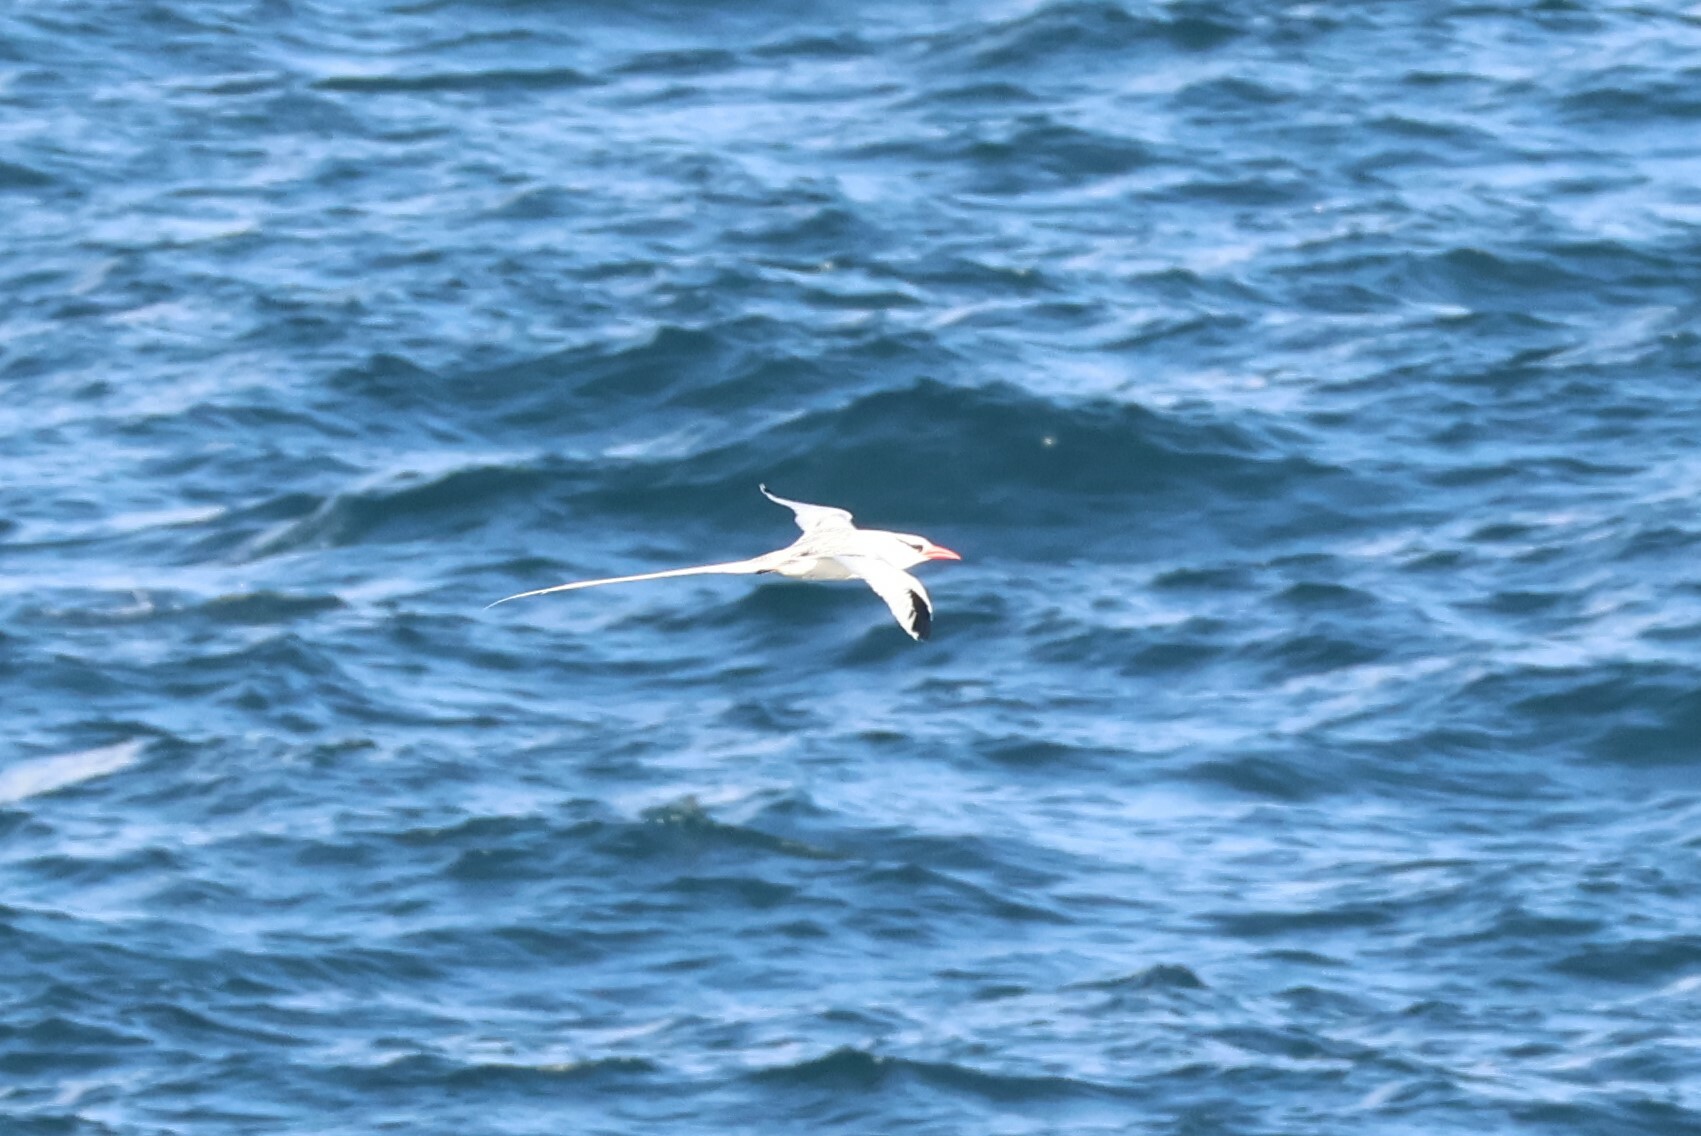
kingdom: Animalia
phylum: Chordata
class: Aves
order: Phaethontiformes
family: Phaethontidae
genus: Phaethon
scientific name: Phaethon aethereus
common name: Red-billed tropicbird
